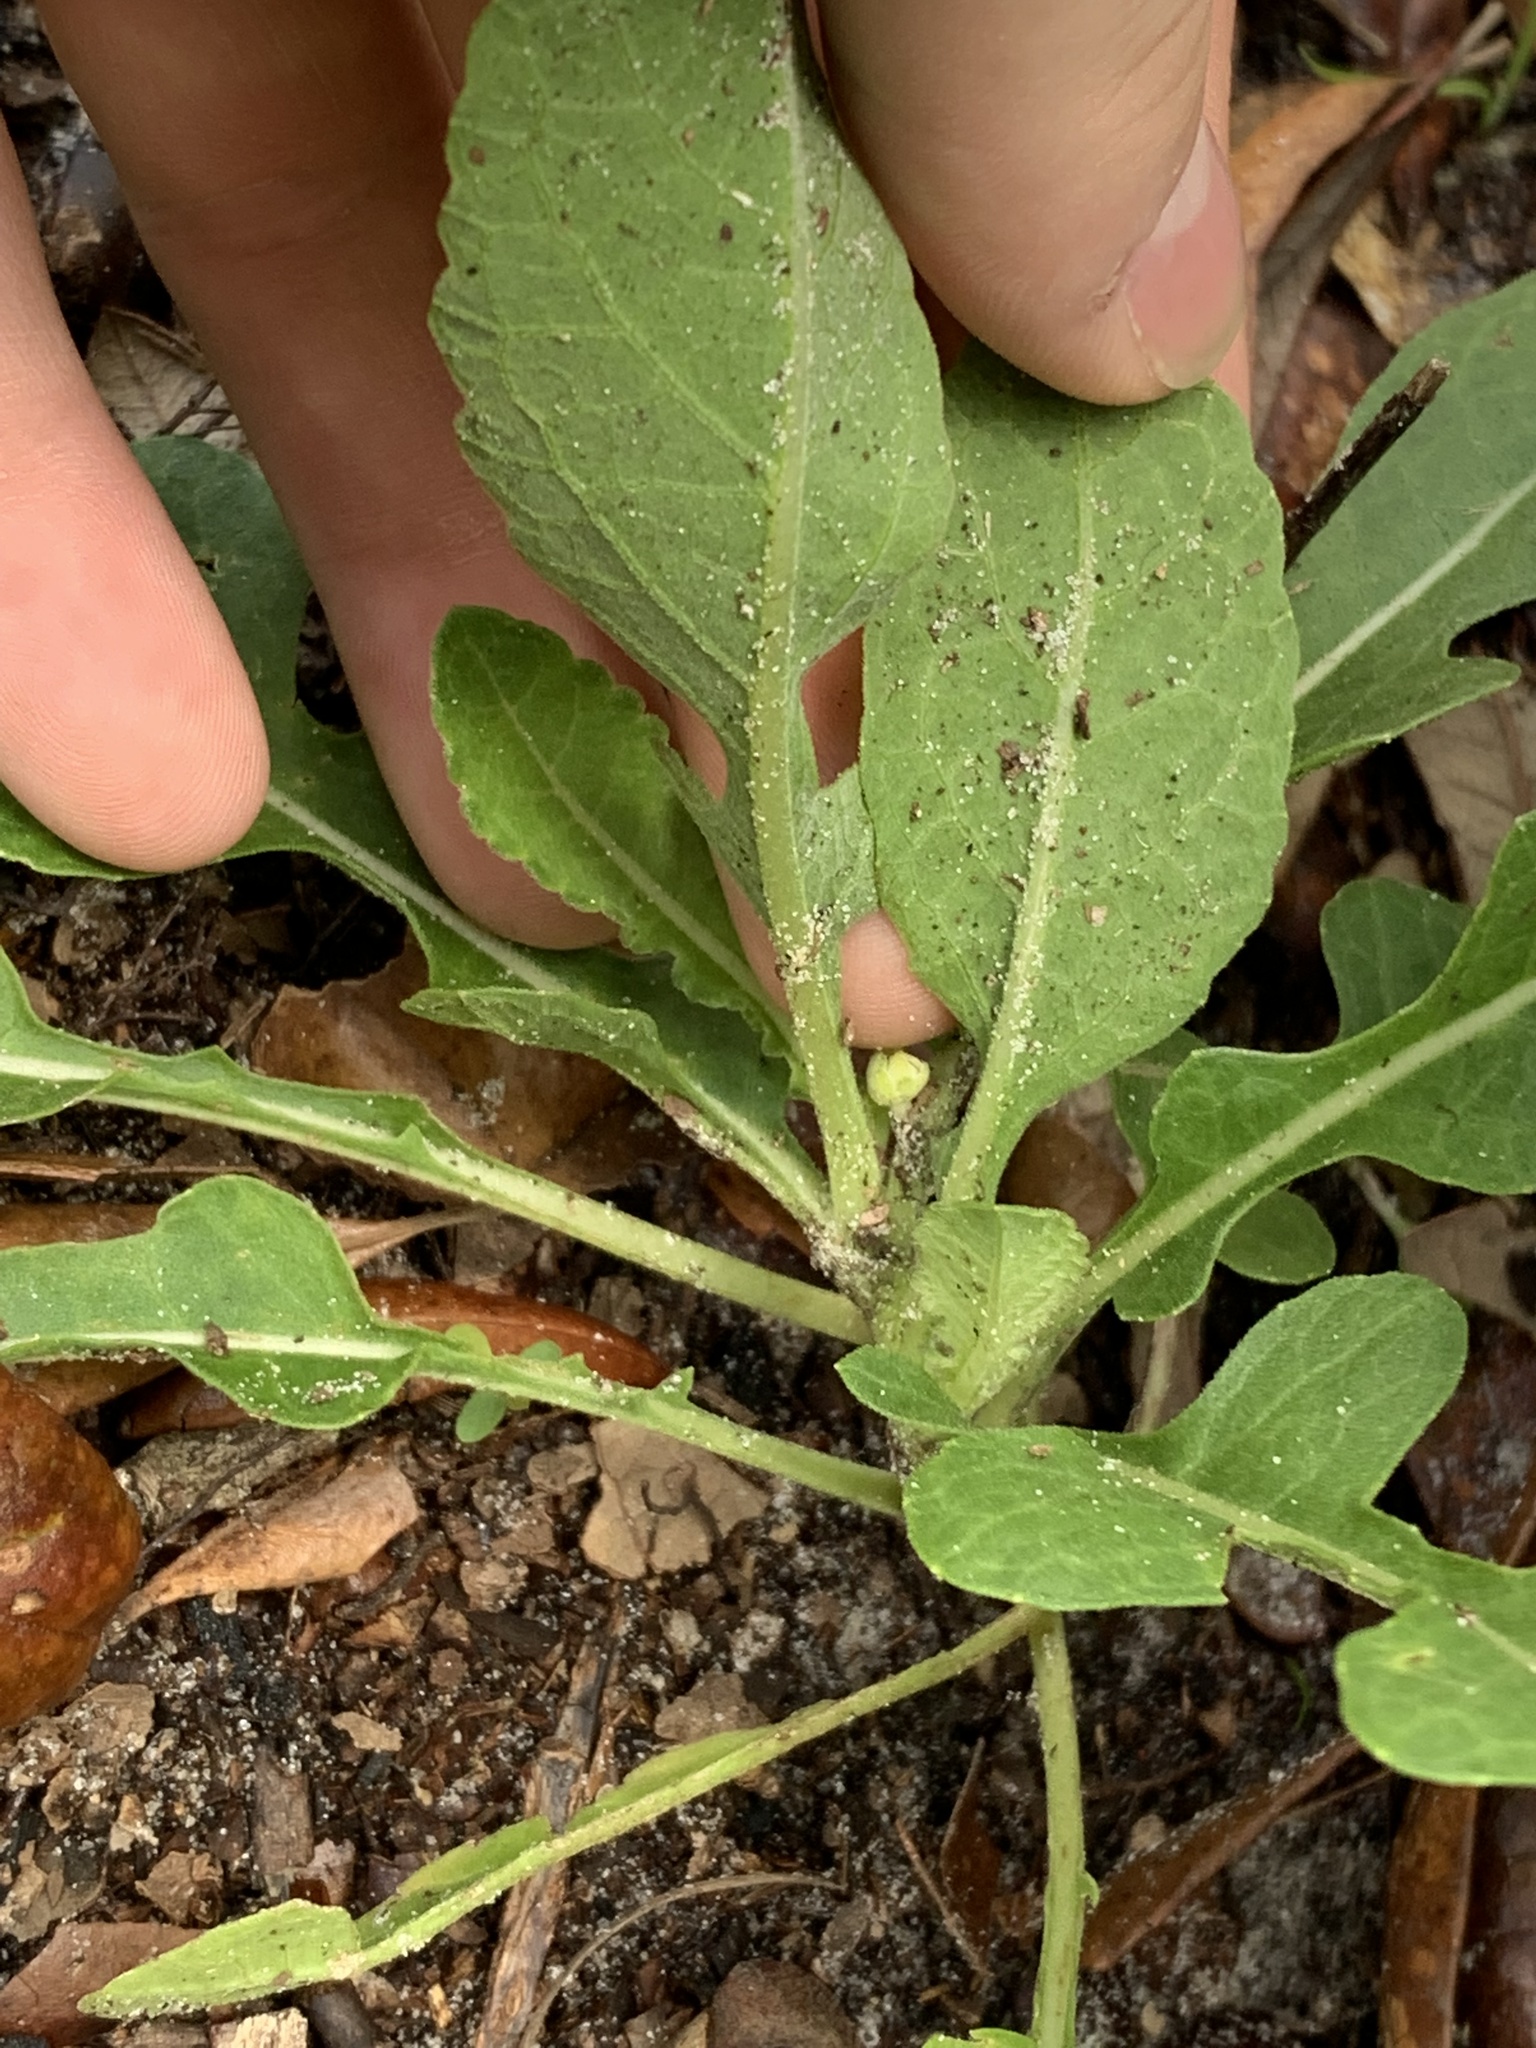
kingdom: Plantae
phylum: Tracheophyta
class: Magnoliopsida
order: Asterales
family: Asteraceae
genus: Berlandiera
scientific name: Berlandiera subacaulis
